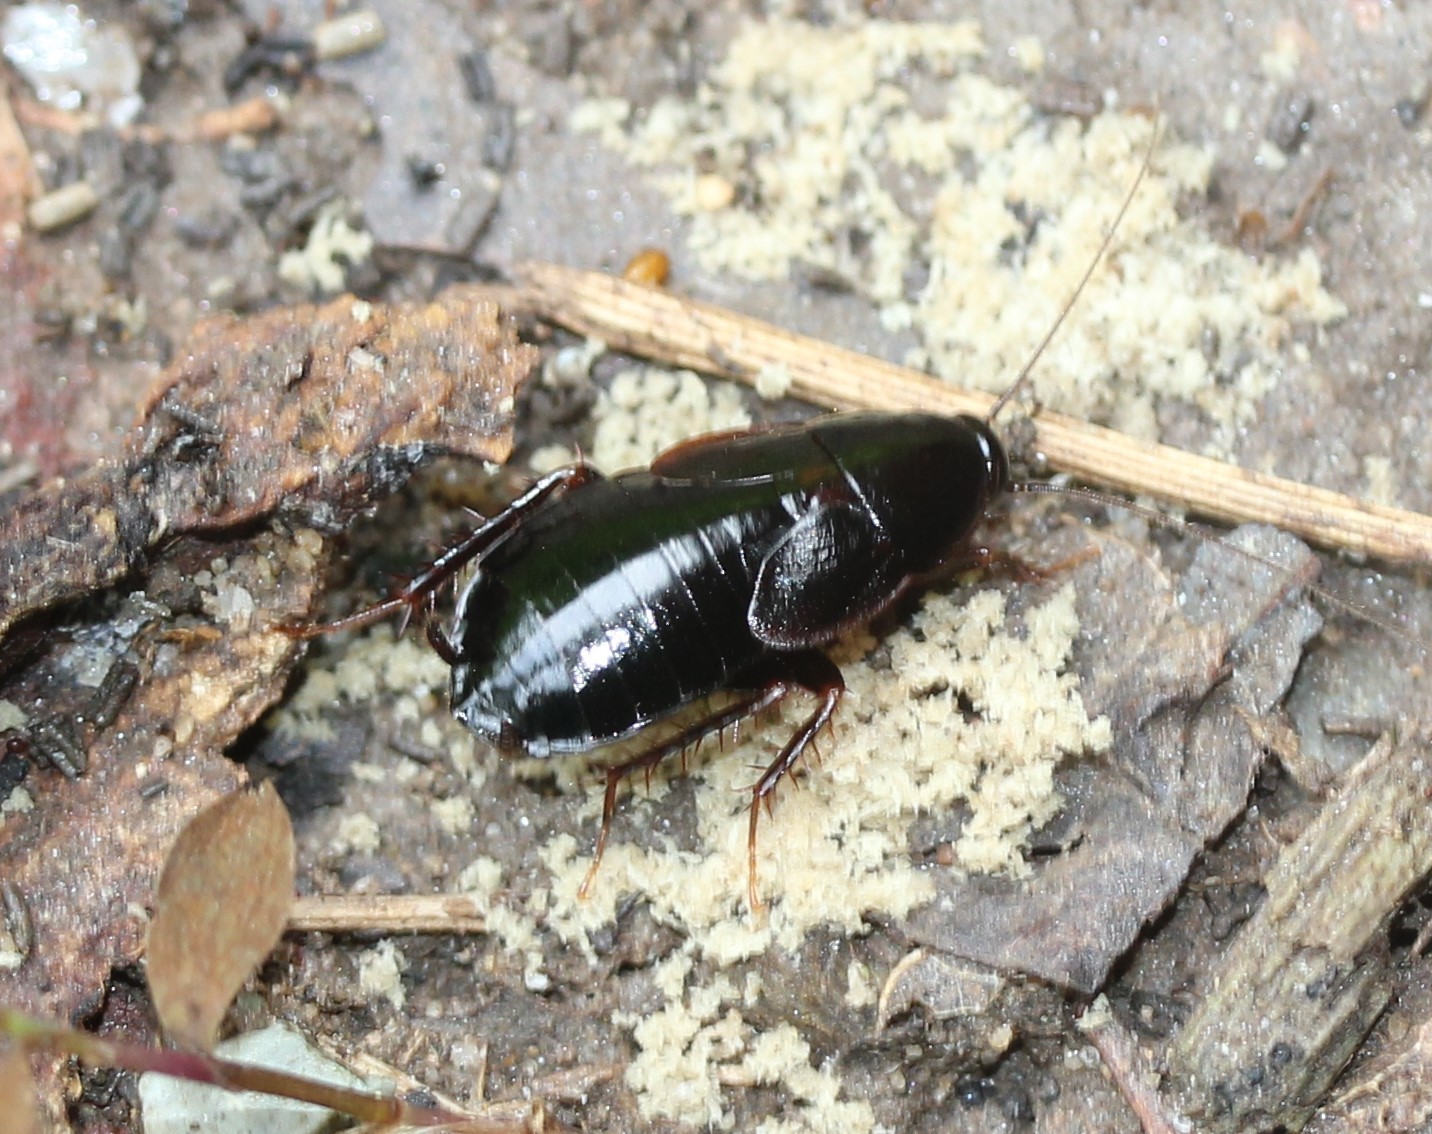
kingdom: Animalia
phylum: Arthropoda
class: Insecta
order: Blattodea
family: Ectobiidae
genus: Parcoblatta
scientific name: Parcoblatta uhleriana
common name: Uhler's wood cockroach
